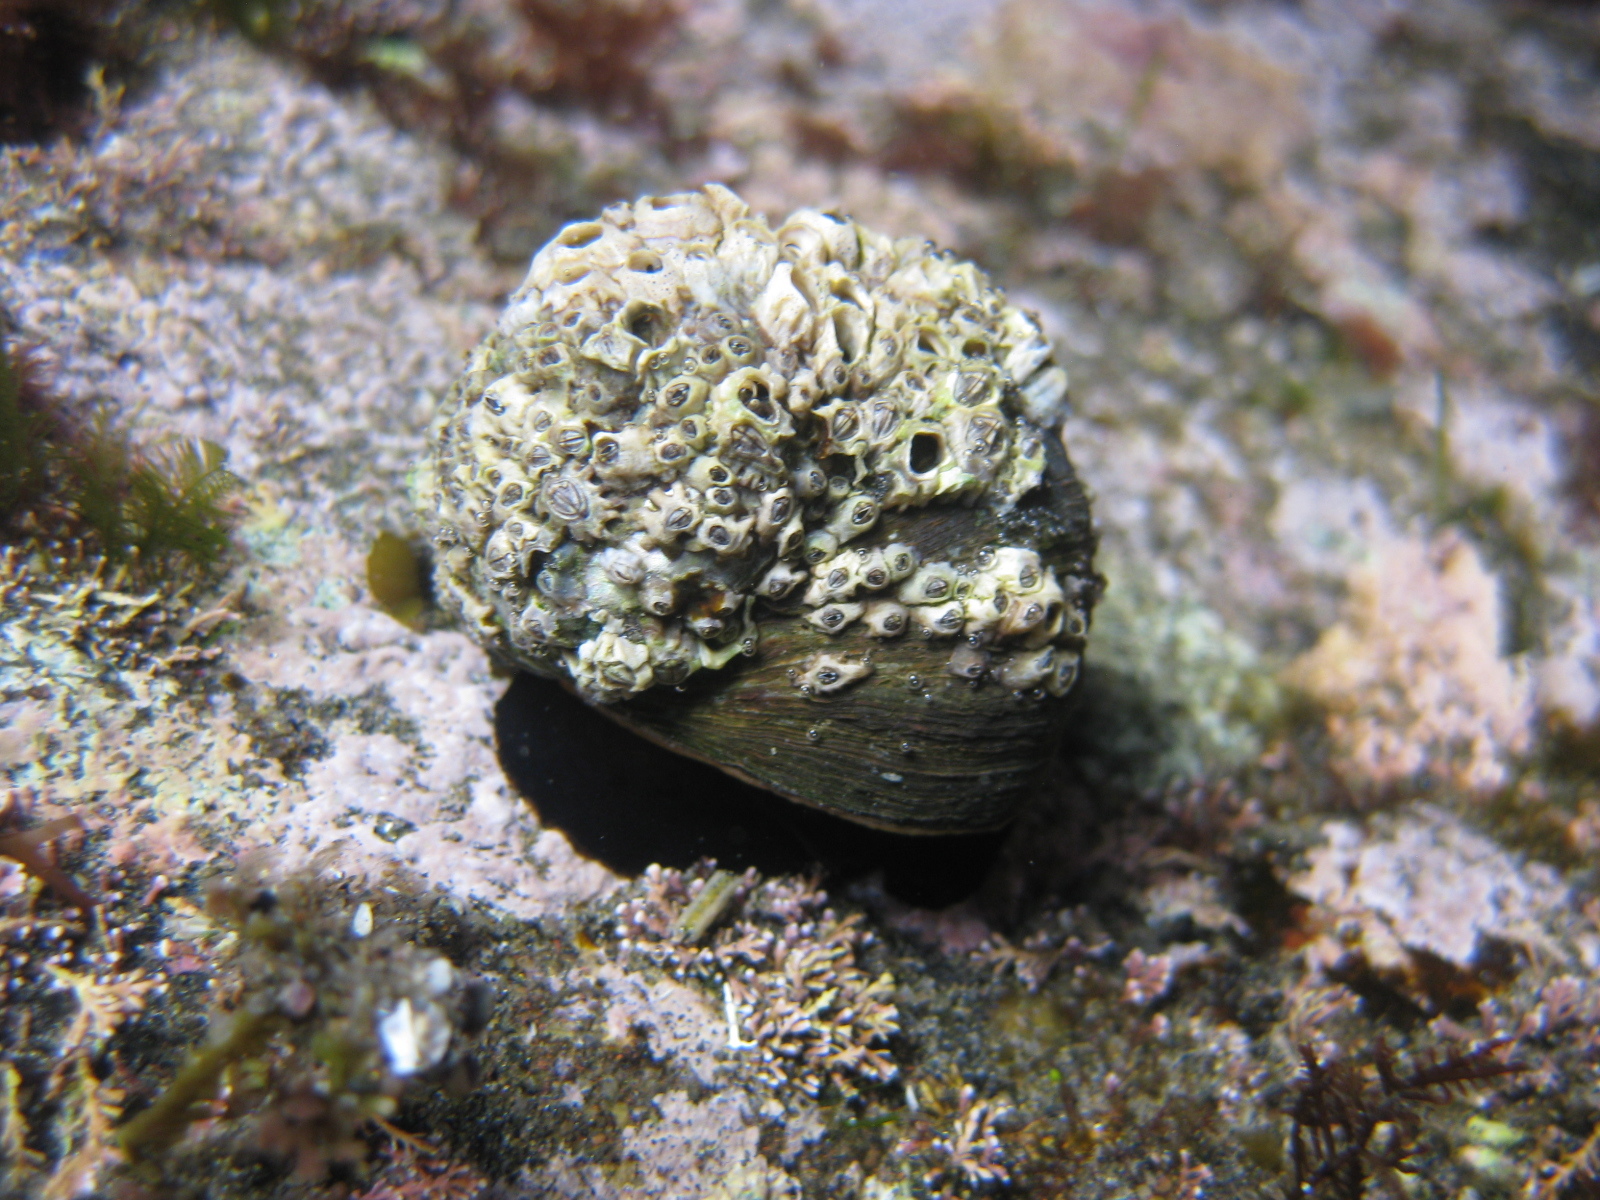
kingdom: Animalia
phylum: Mollusca
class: Gastropoda
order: Trochida
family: Turbinidae
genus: Lunella
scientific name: Lunella smaragda
